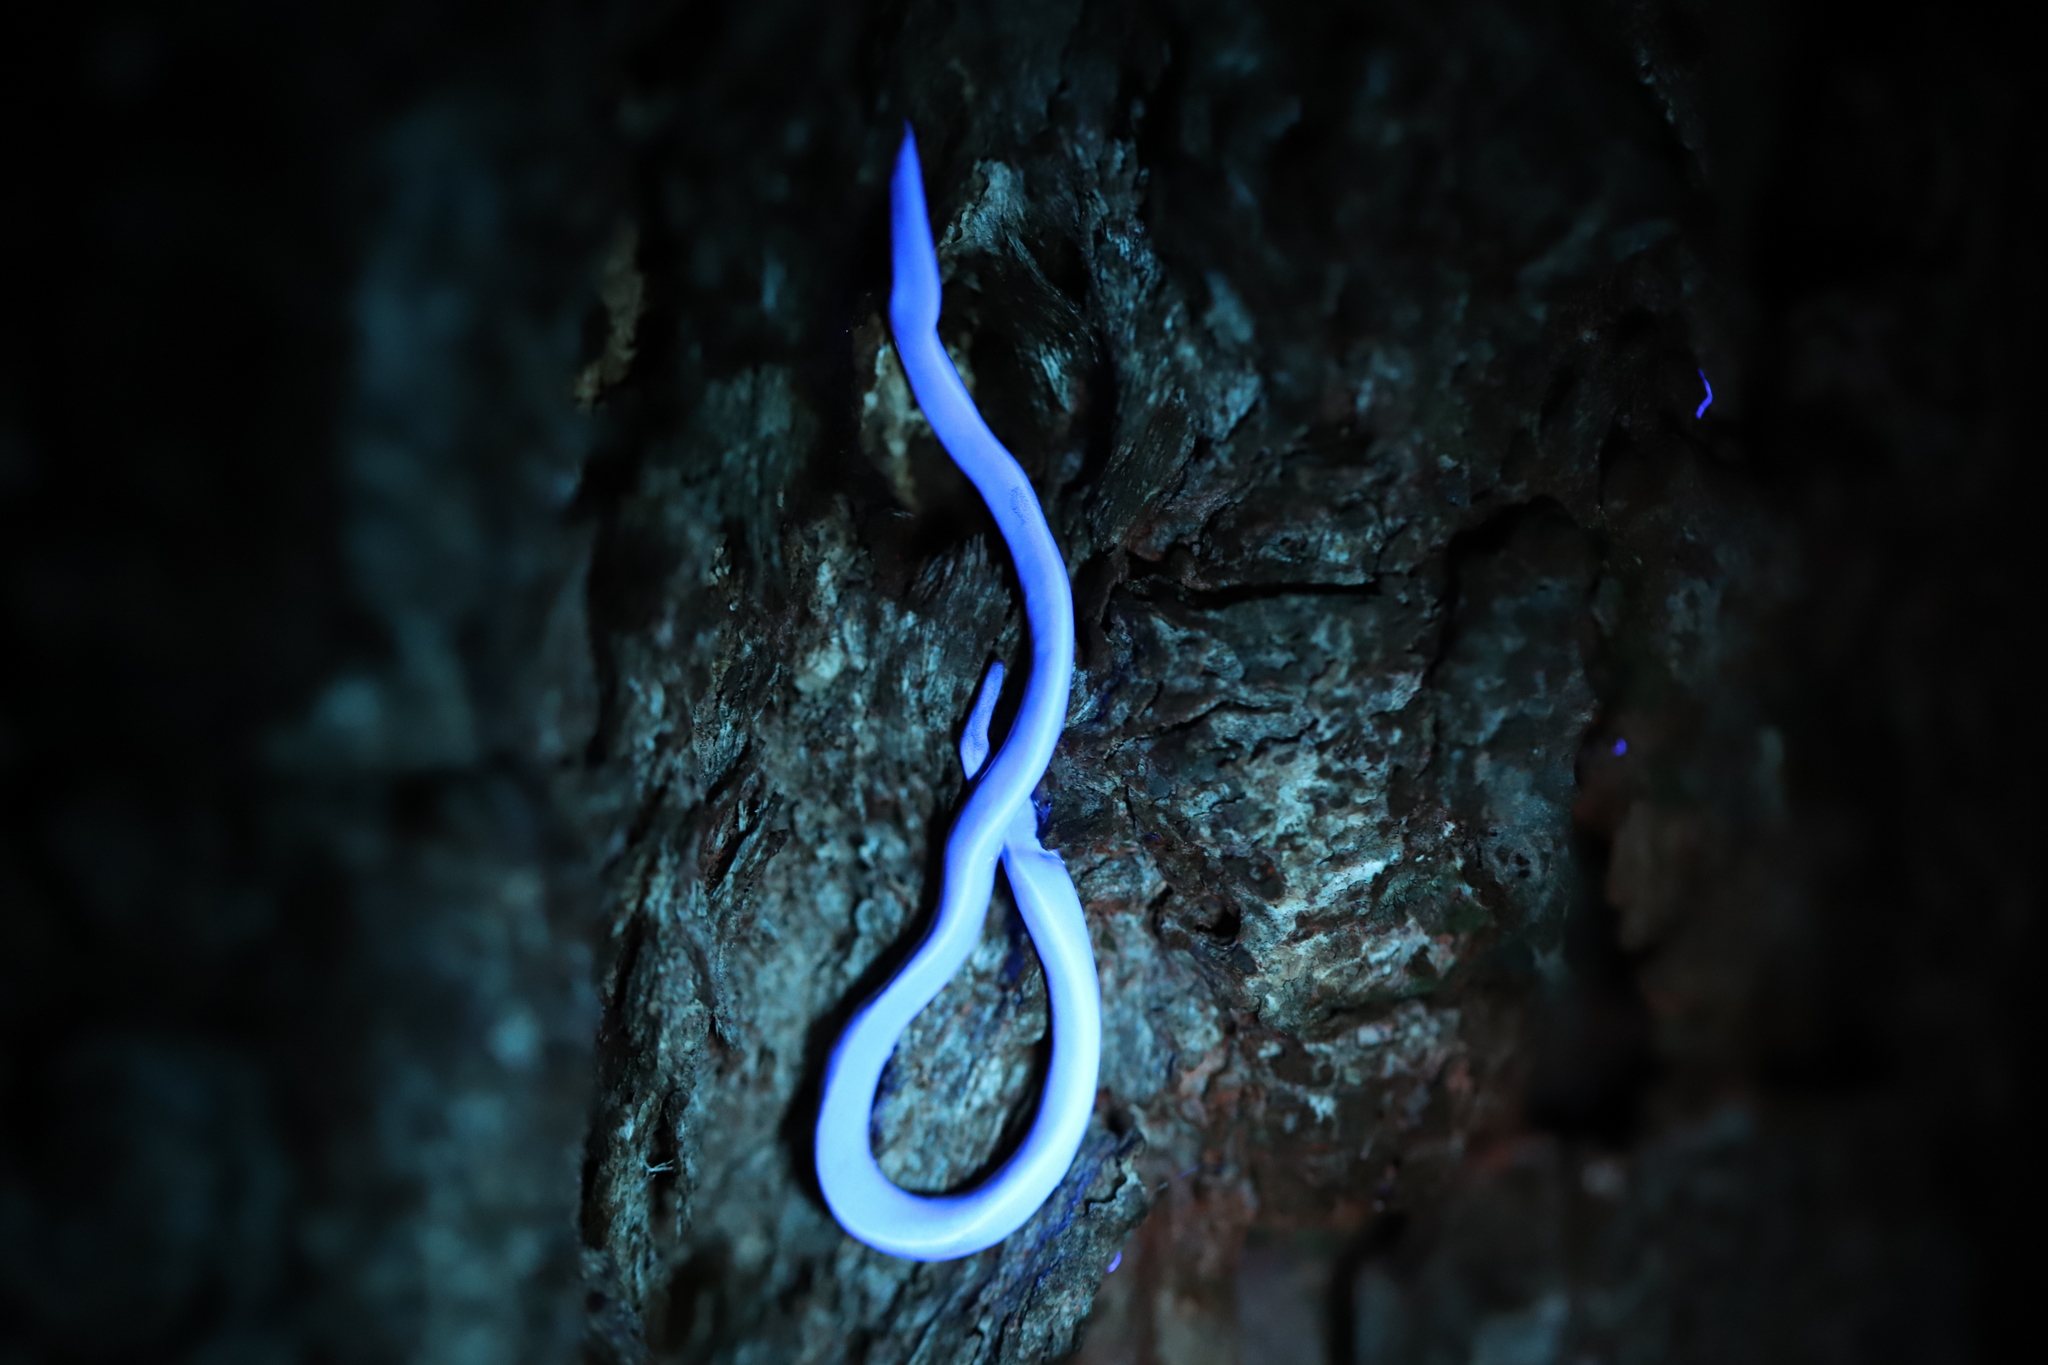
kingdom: Animalia
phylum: Platyhelminthes
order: Tricladida
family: Geoplanidae
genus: Caenoplana
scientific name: Caenoplana coerulea
